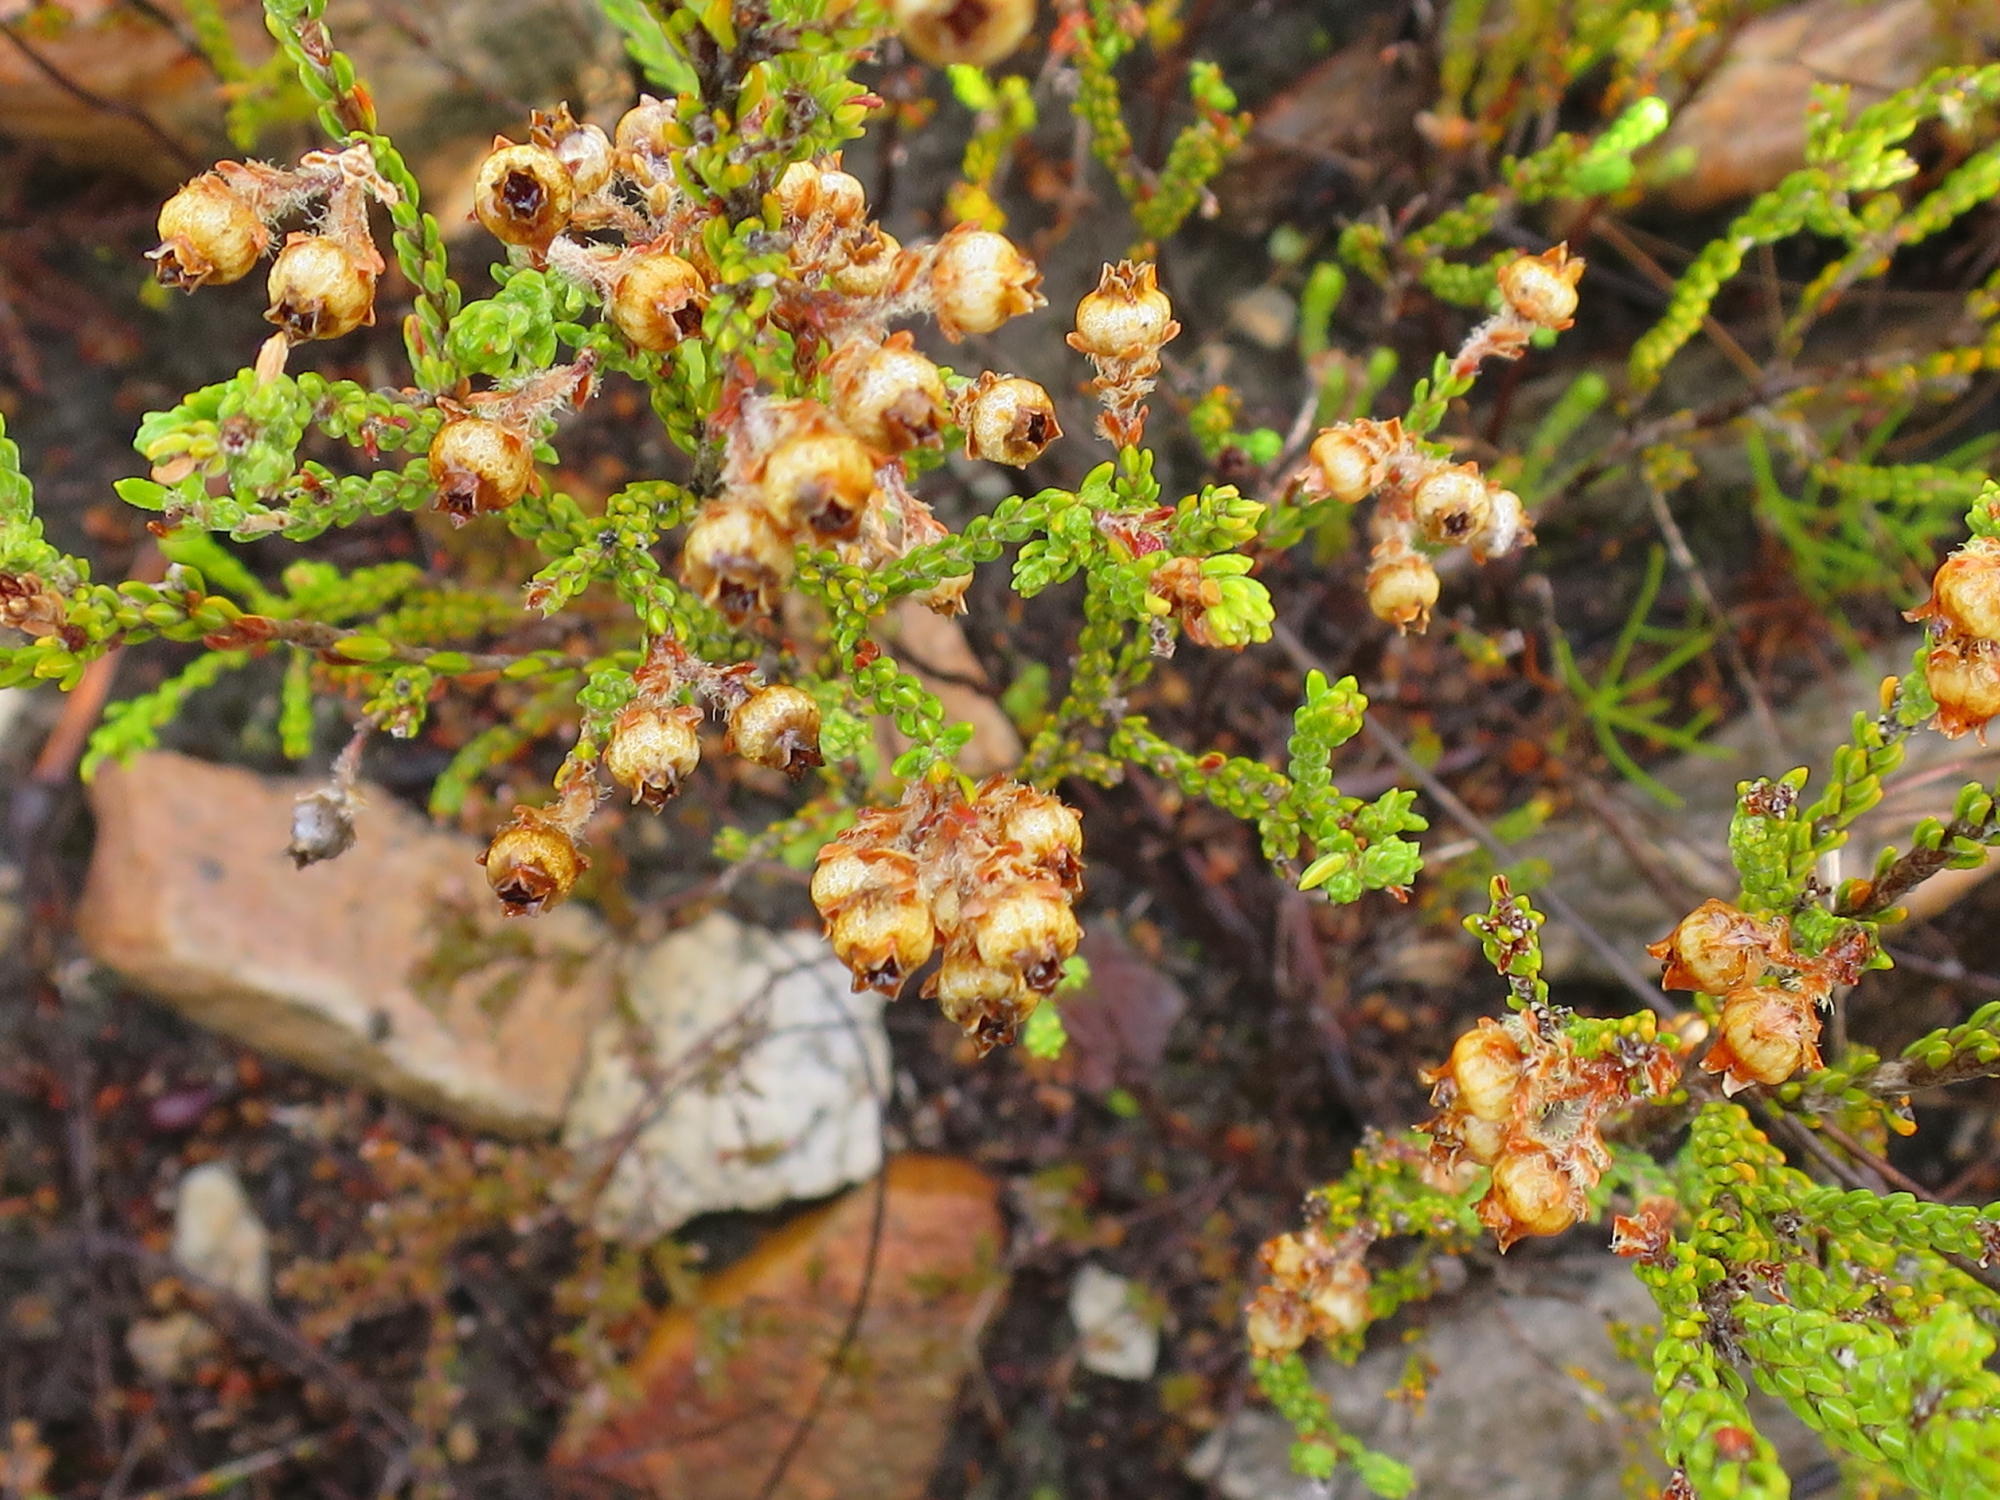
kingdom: Plantae
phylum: Tracheophyta
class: Magnoliopsida
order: Ericales
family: Ericaceae
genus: Erica
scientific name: Erica fimbriata
